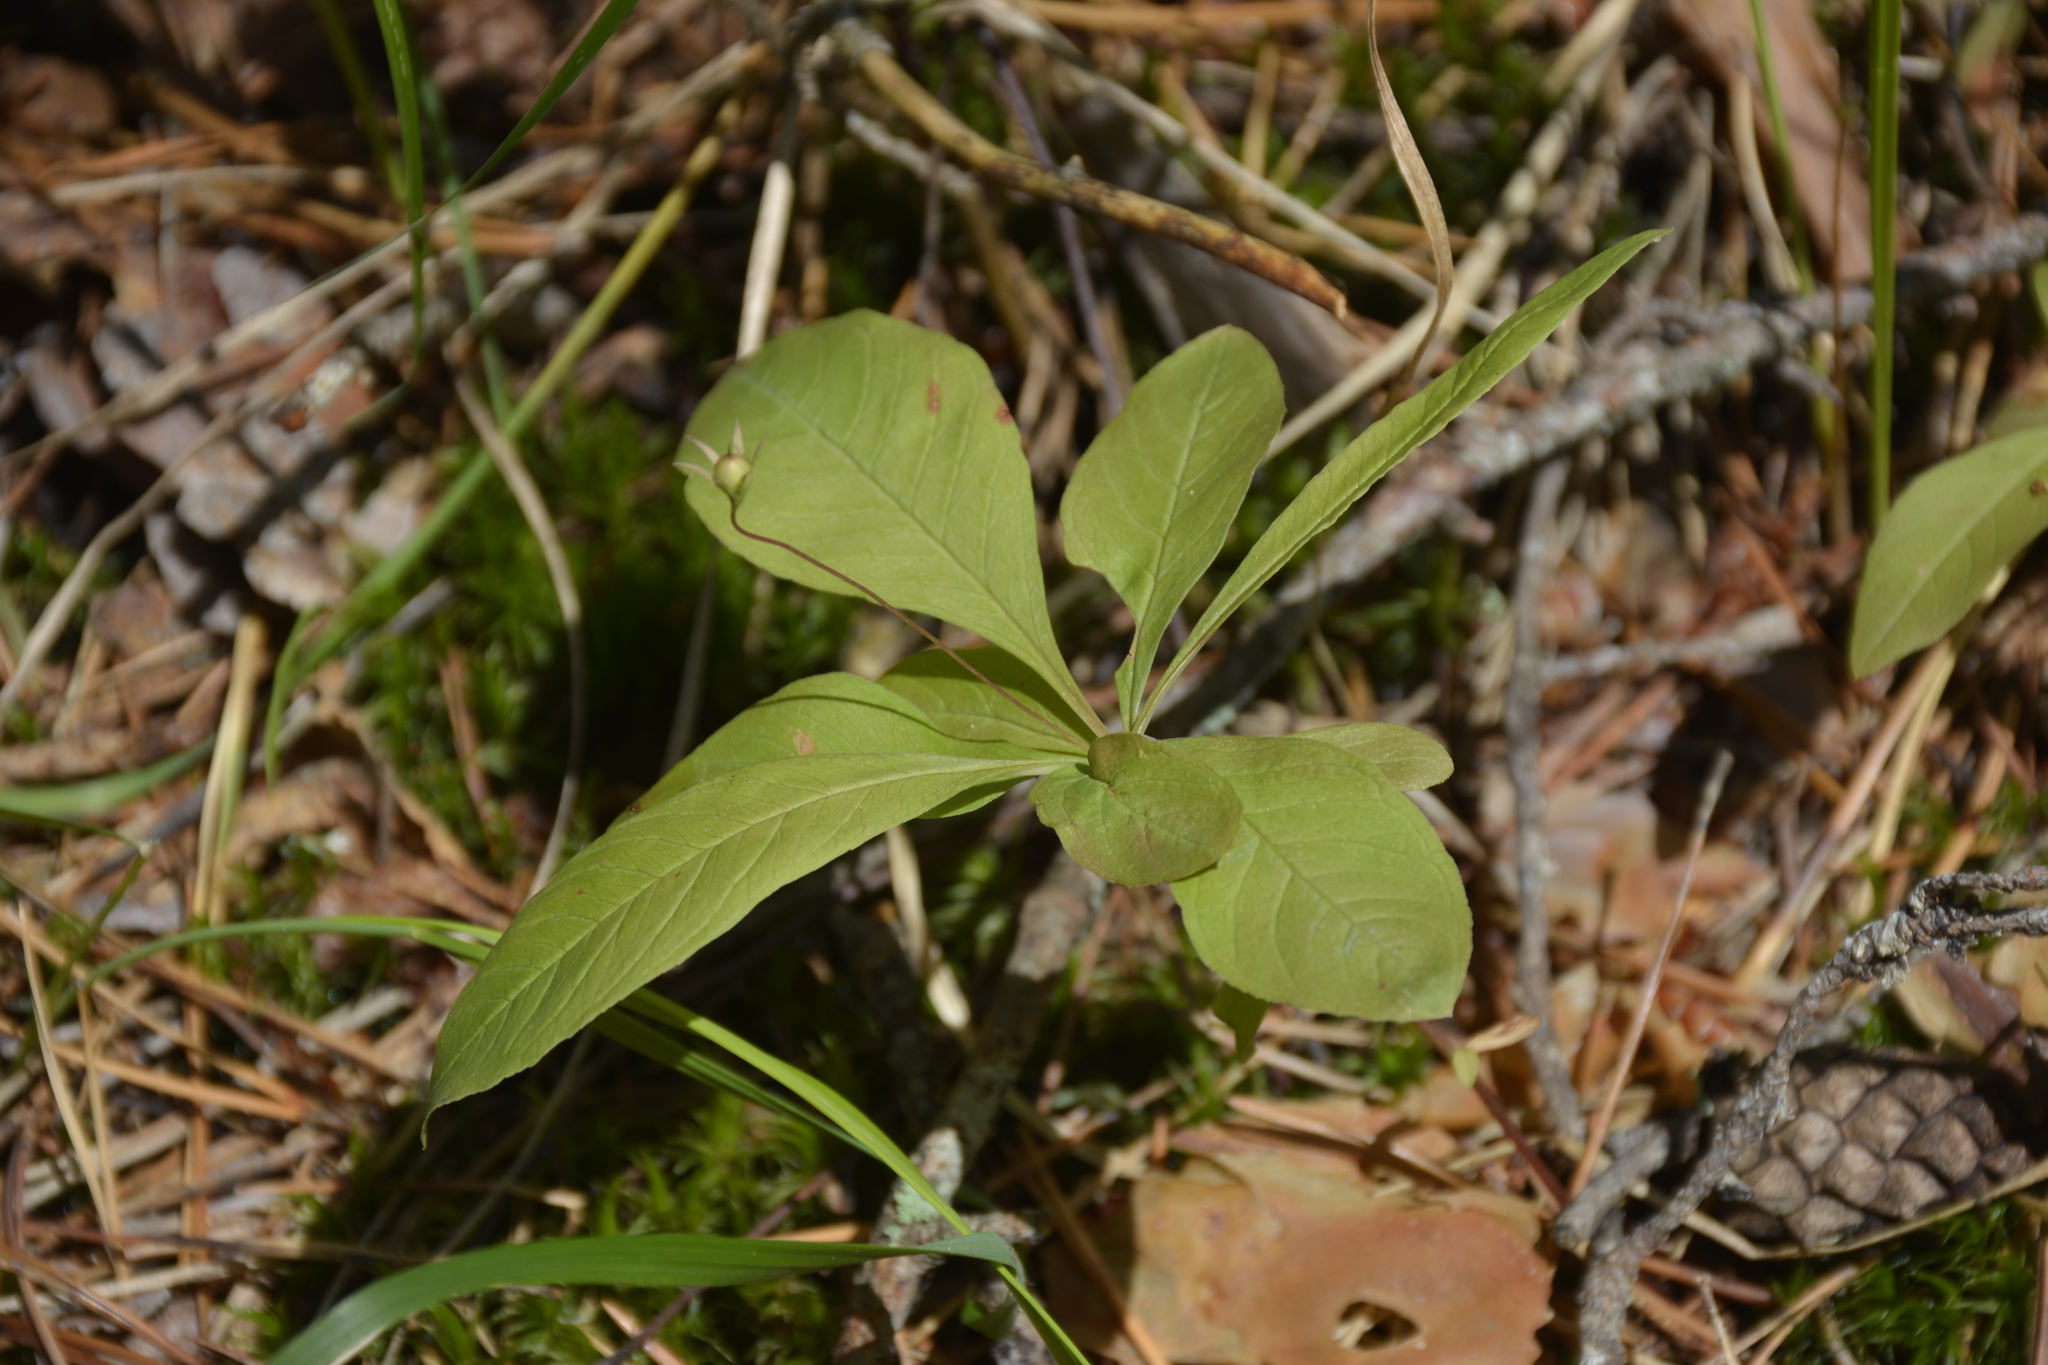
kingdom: Plantae
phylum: Tracheophyta
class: Magnoliopsida
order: Ericales
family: Primulaceae
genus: Lysimachia
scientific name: Lysimachia europaea
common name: Arctic starflower
